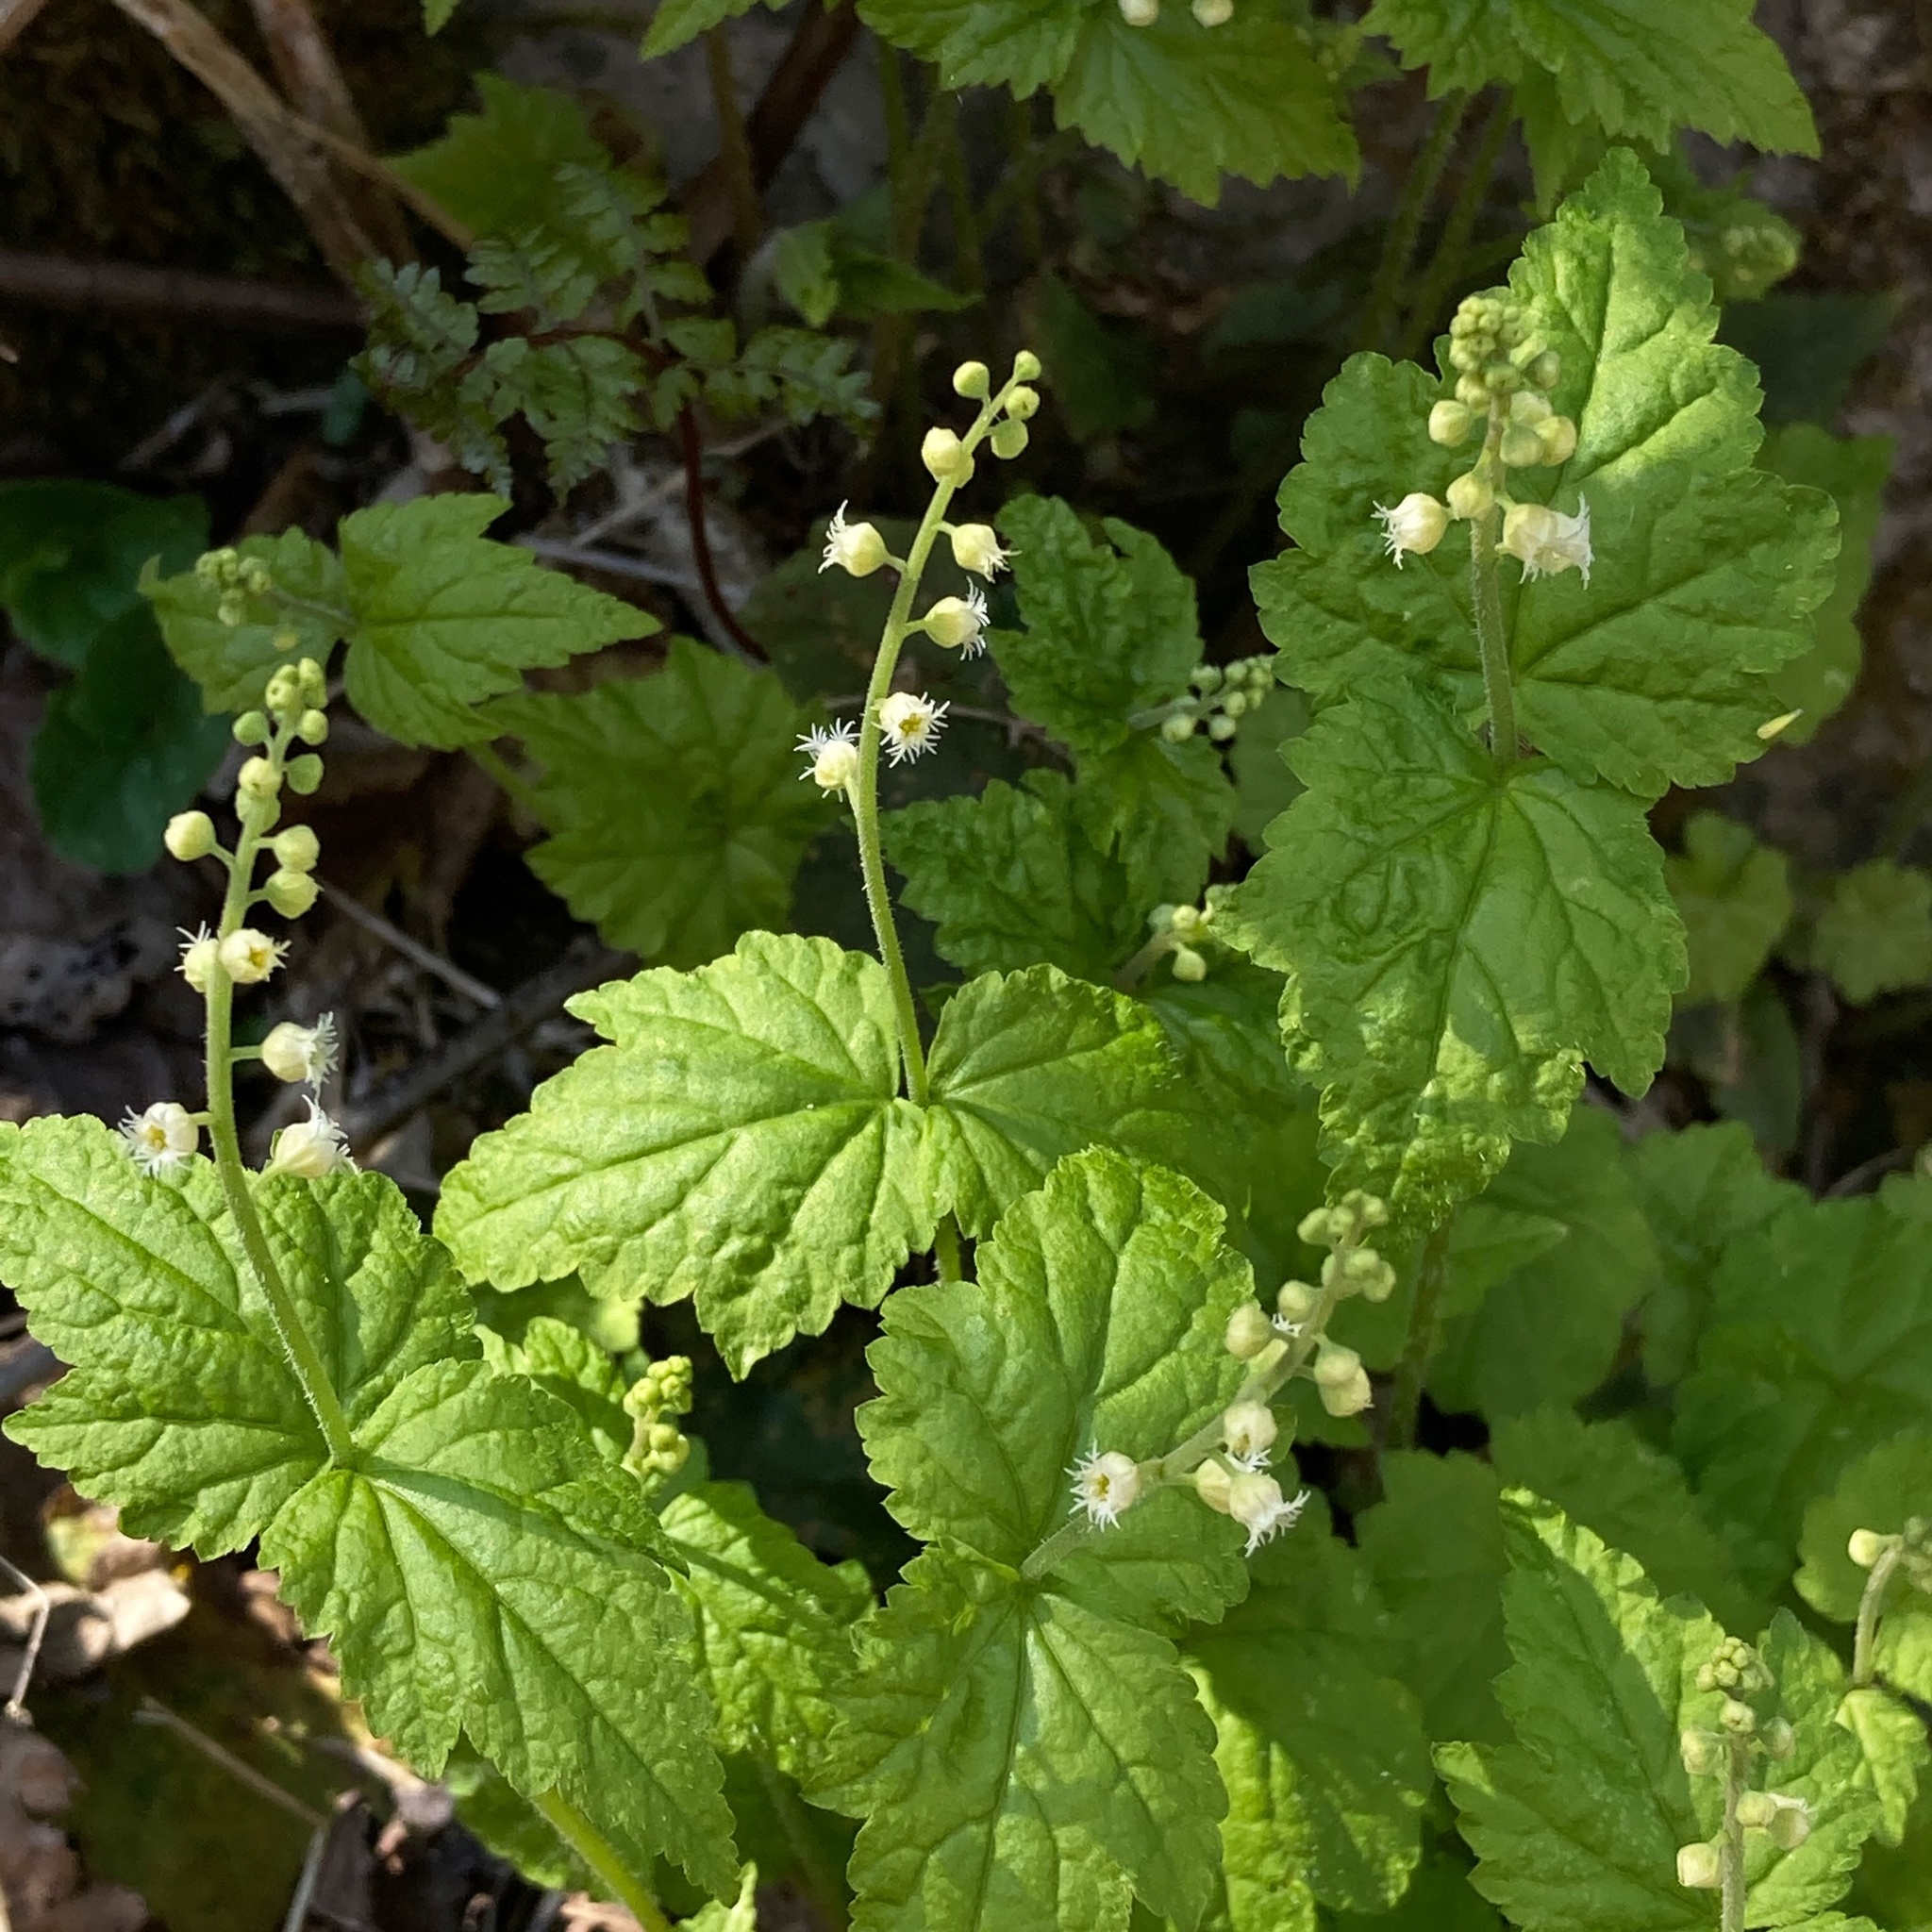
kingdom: Plantae
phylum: Tracheophyta
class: Magnoliopsida
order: Saxifragales
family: Saxifragaceae
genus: Mitella
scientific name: Mitella diphylla
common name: Coolwort
